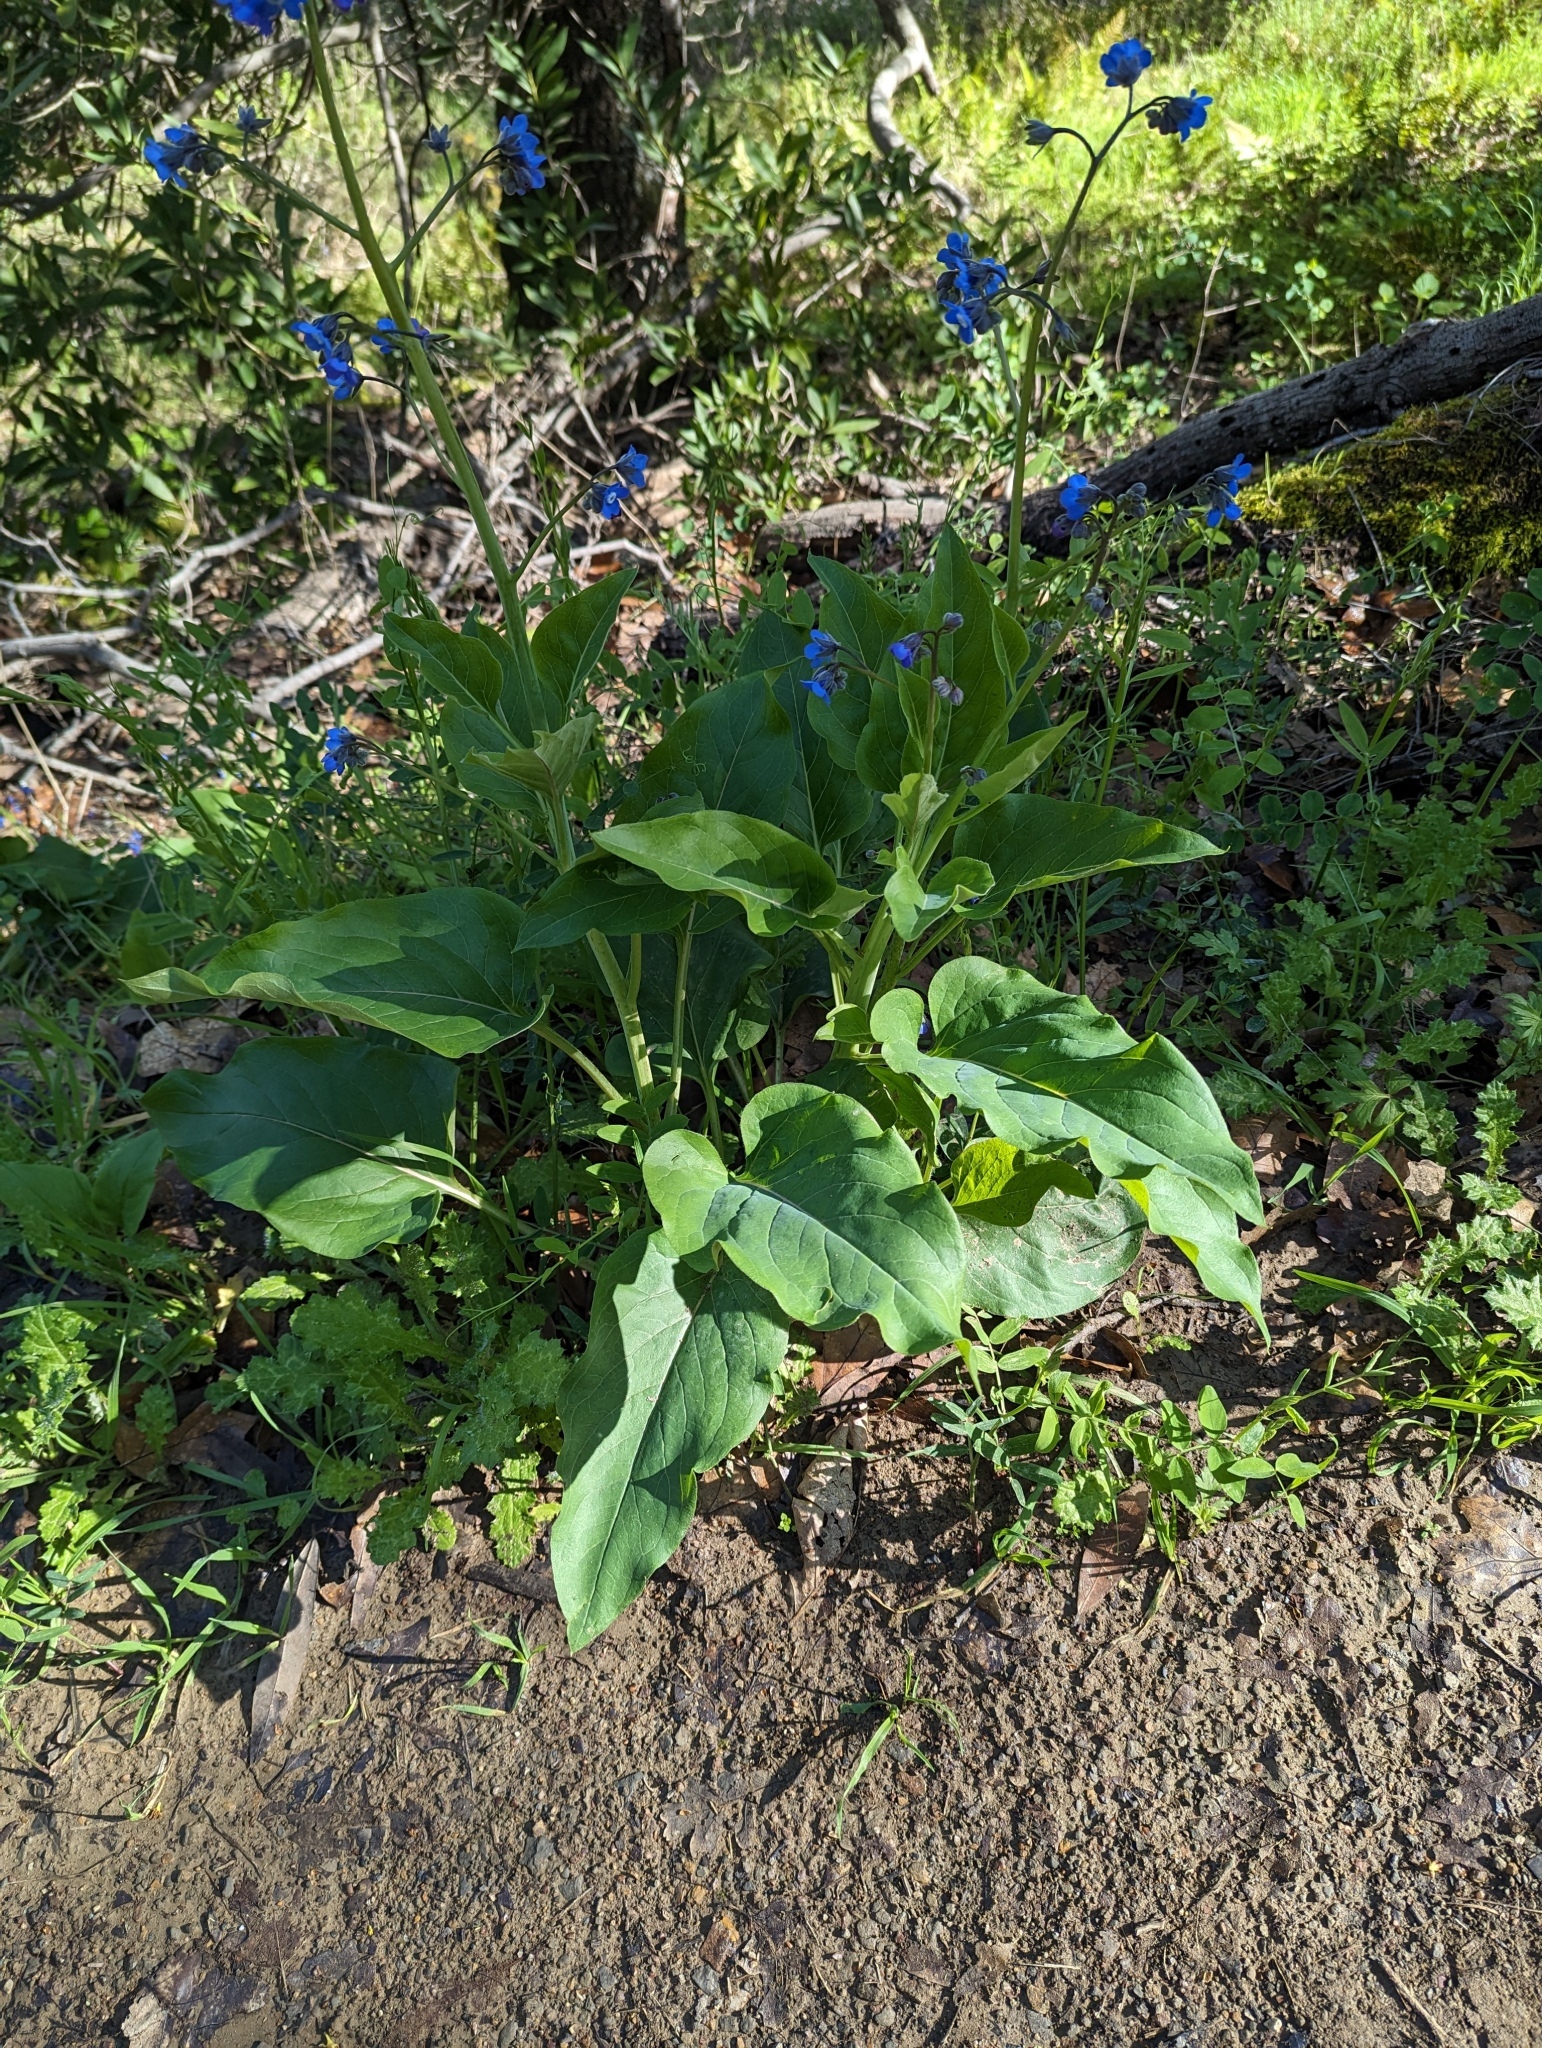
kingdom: Plantae
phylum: Tracheophyta
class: Magnoliopsida
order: Boraginales
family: Boraginaceae
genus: Adelinia
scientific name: Adelinia grande
